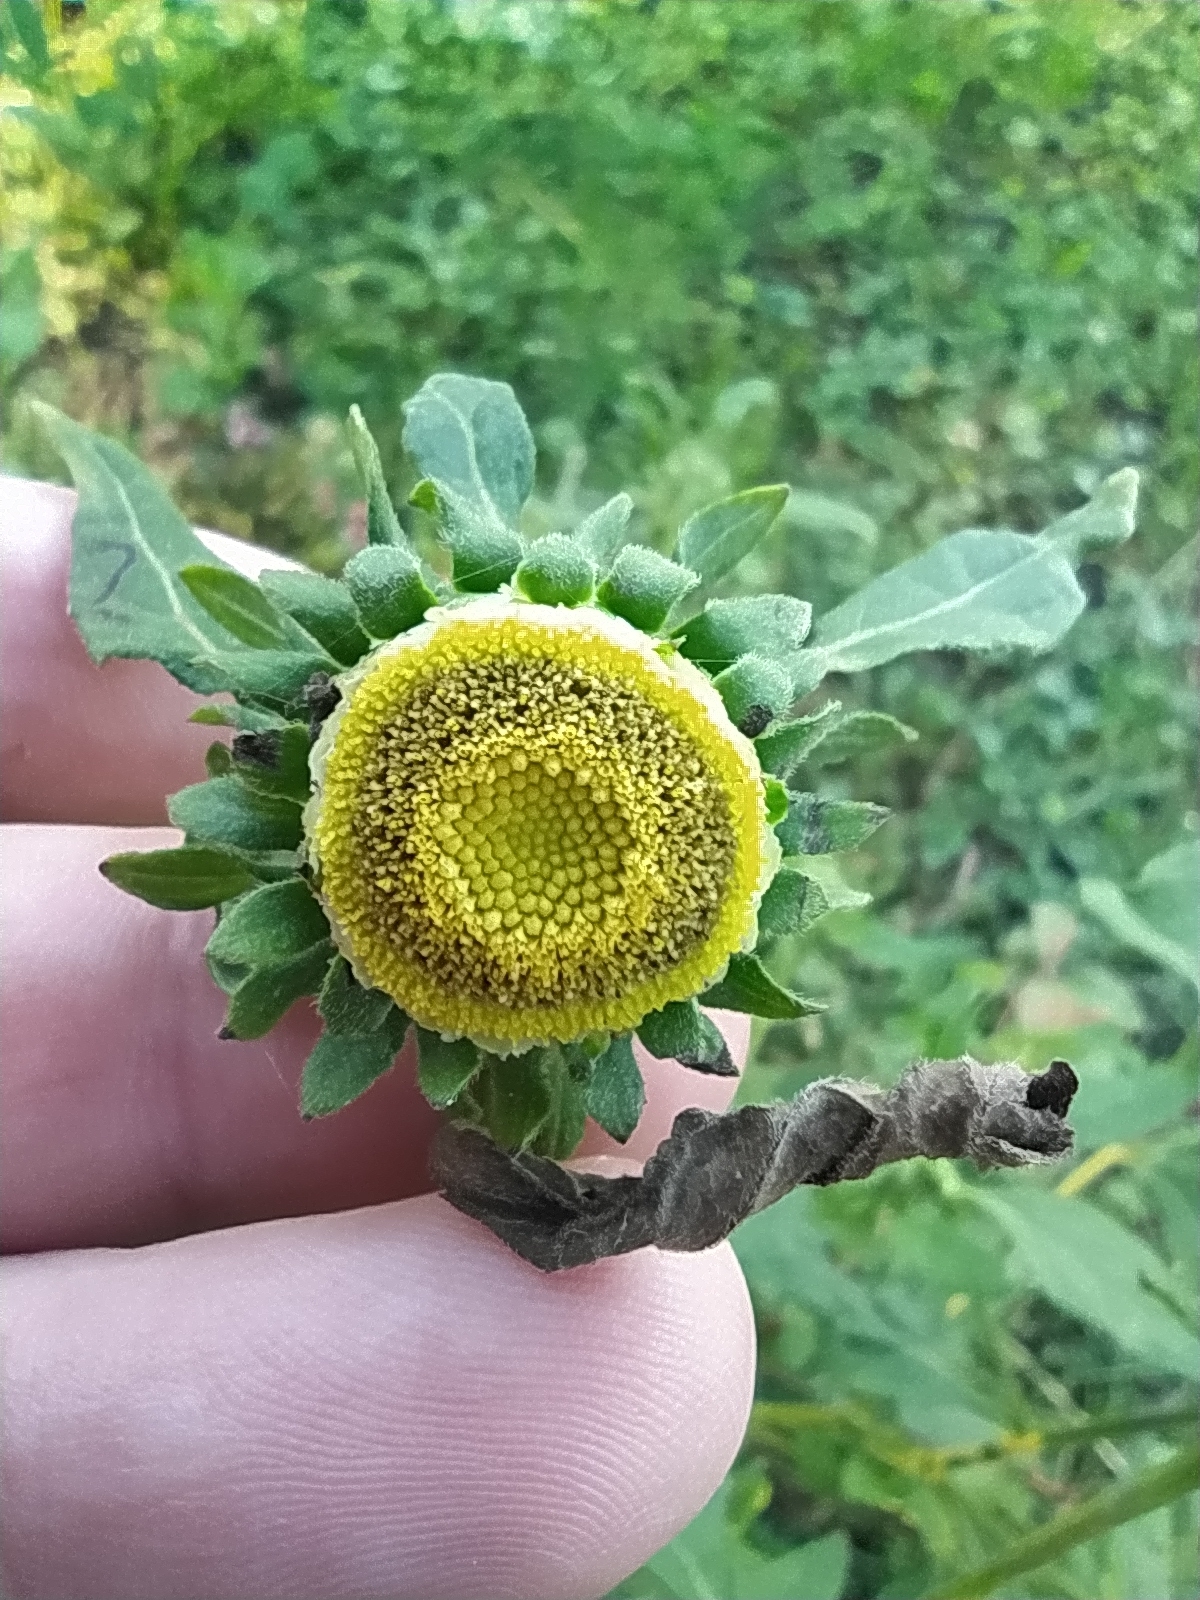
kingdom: Plantae
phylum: Tracheophyta
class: Magnoliopsida
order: Asterales
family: Asteraceae
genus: Carpesium
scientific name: Carpesium cernuum
